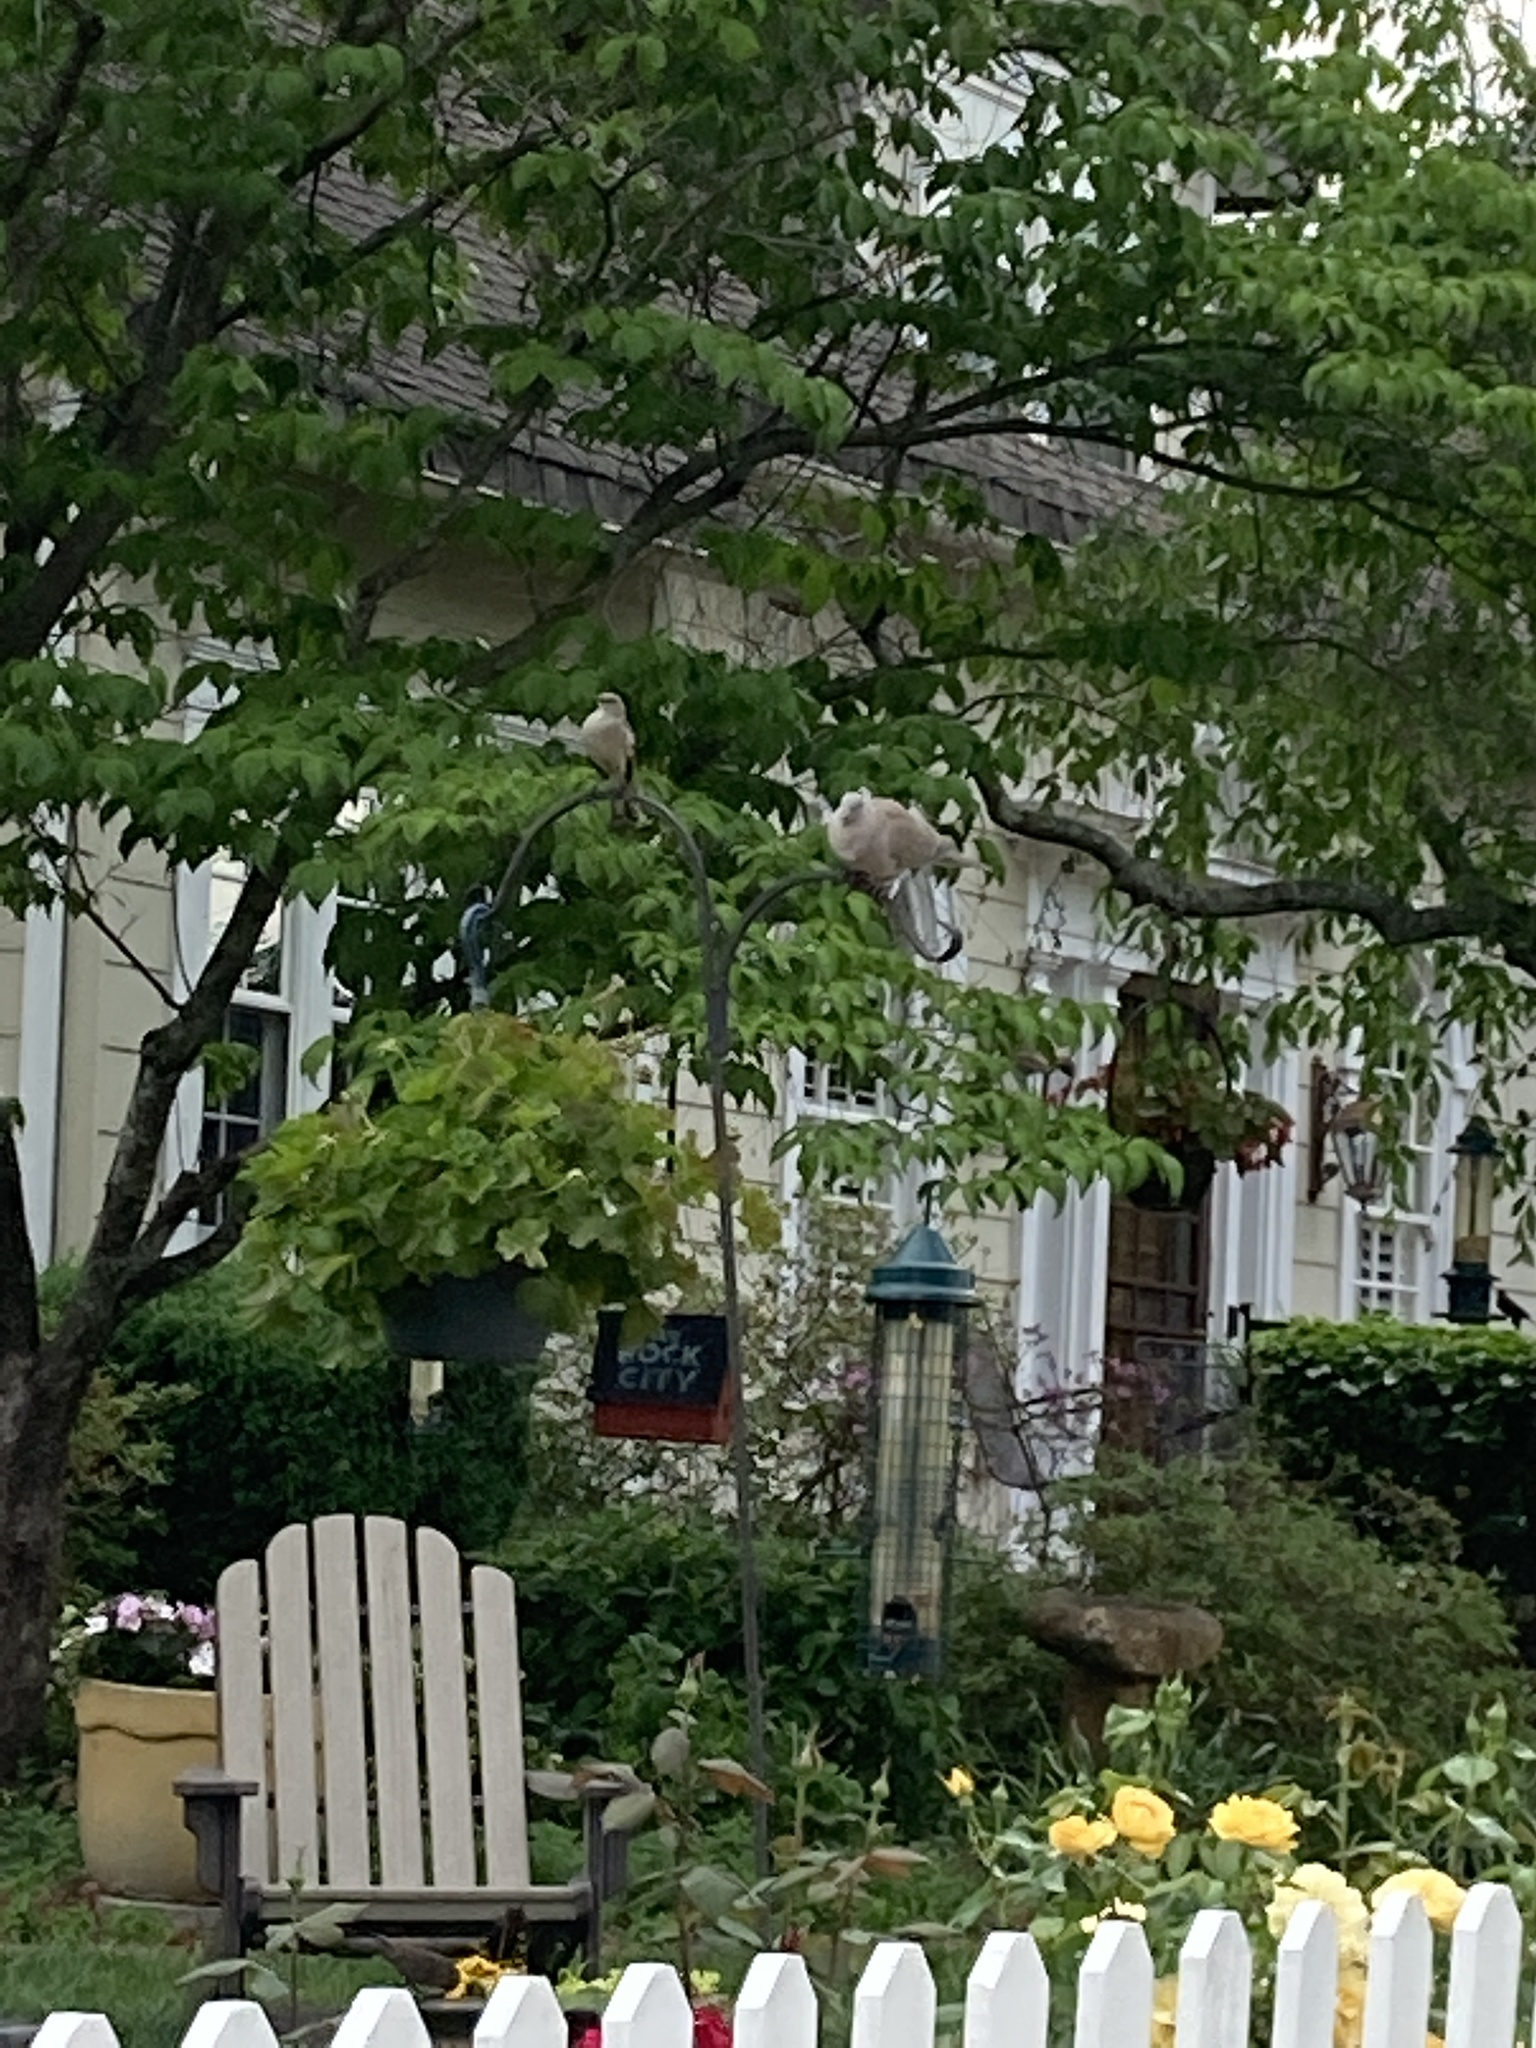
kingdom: Animalia
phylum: Chordata
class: Aves
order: Columbiformes
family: Columbidae
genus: Zenaida
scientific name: Zenaida macroura
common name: Mourning dove
